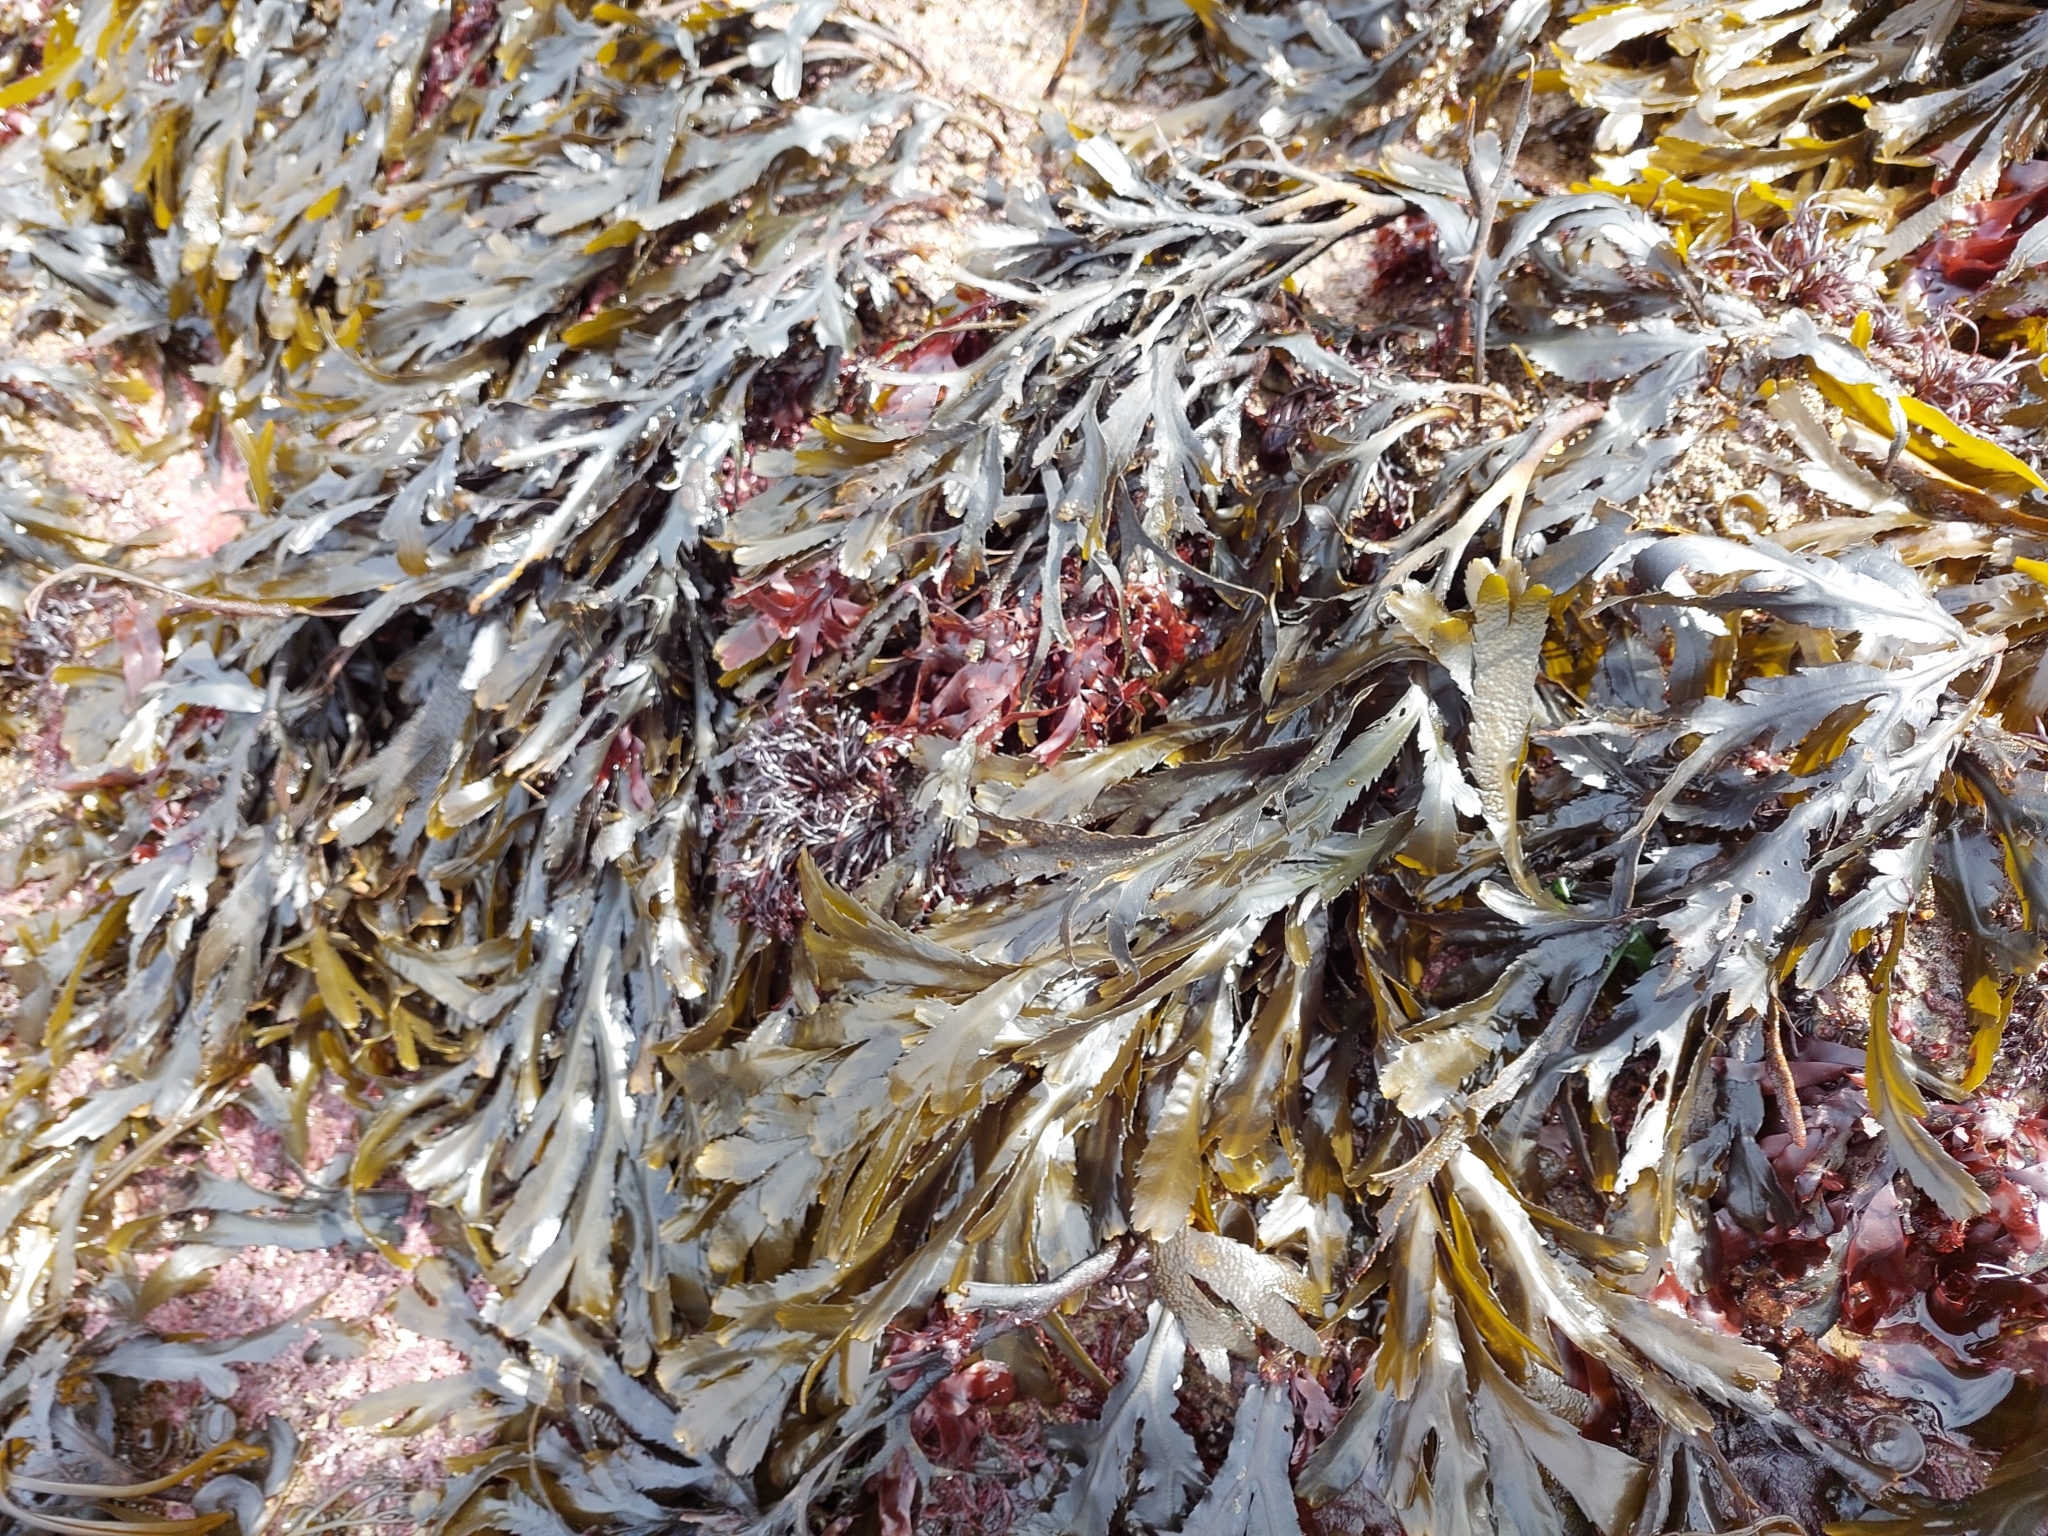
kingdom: Chromista
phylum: Ochrophyta
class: Phaeophyceae
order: Fucales
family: Fucaceae
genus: Fucus
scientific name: Fucus serratus
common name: Toothed wrack
